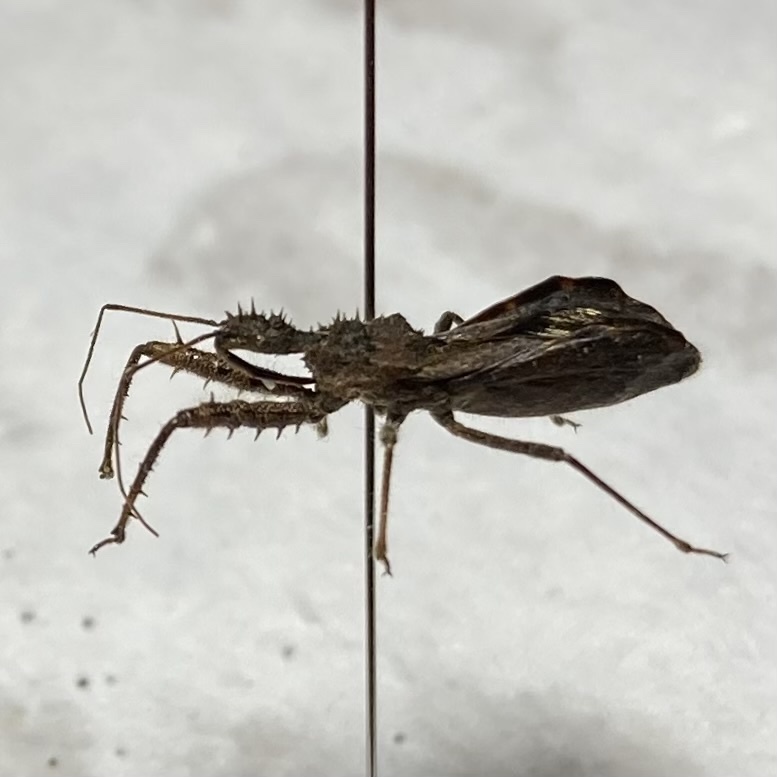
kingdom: Animalia
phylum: Arthropoda
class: Insecta
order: Hemiptera
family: Reduviidae
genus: Sinea
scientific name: Sinea diadema
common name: Spined assassin bug
